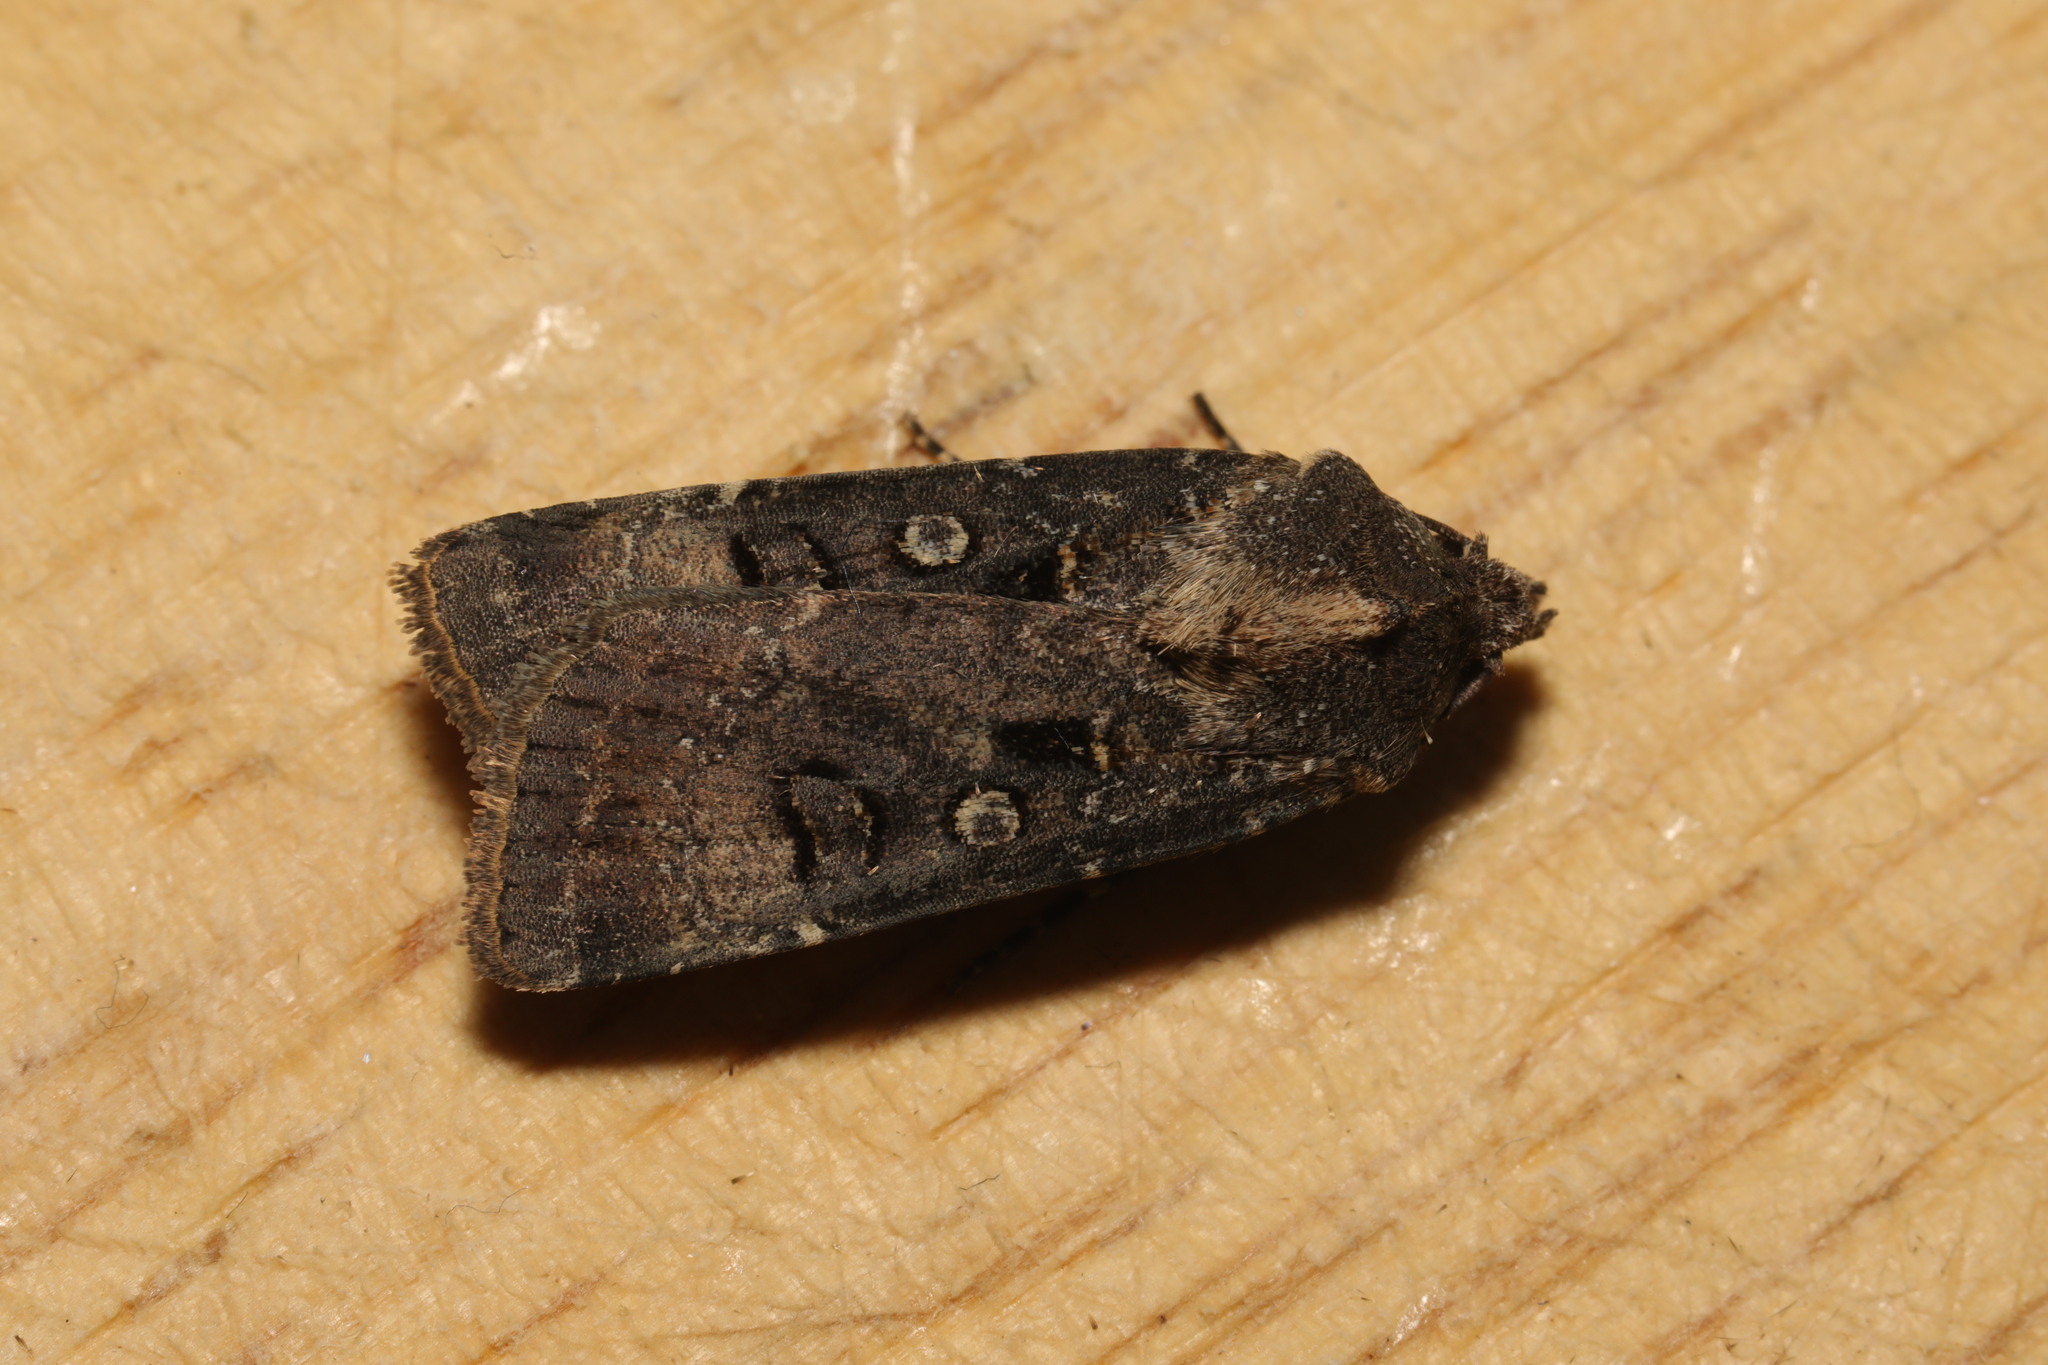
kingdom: Animalia
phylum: Arthropoda
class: Insecta
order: Lepidoptera
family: Noctuidae
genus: Agrotis
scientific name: Agrotis trux
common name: Crescent dart
